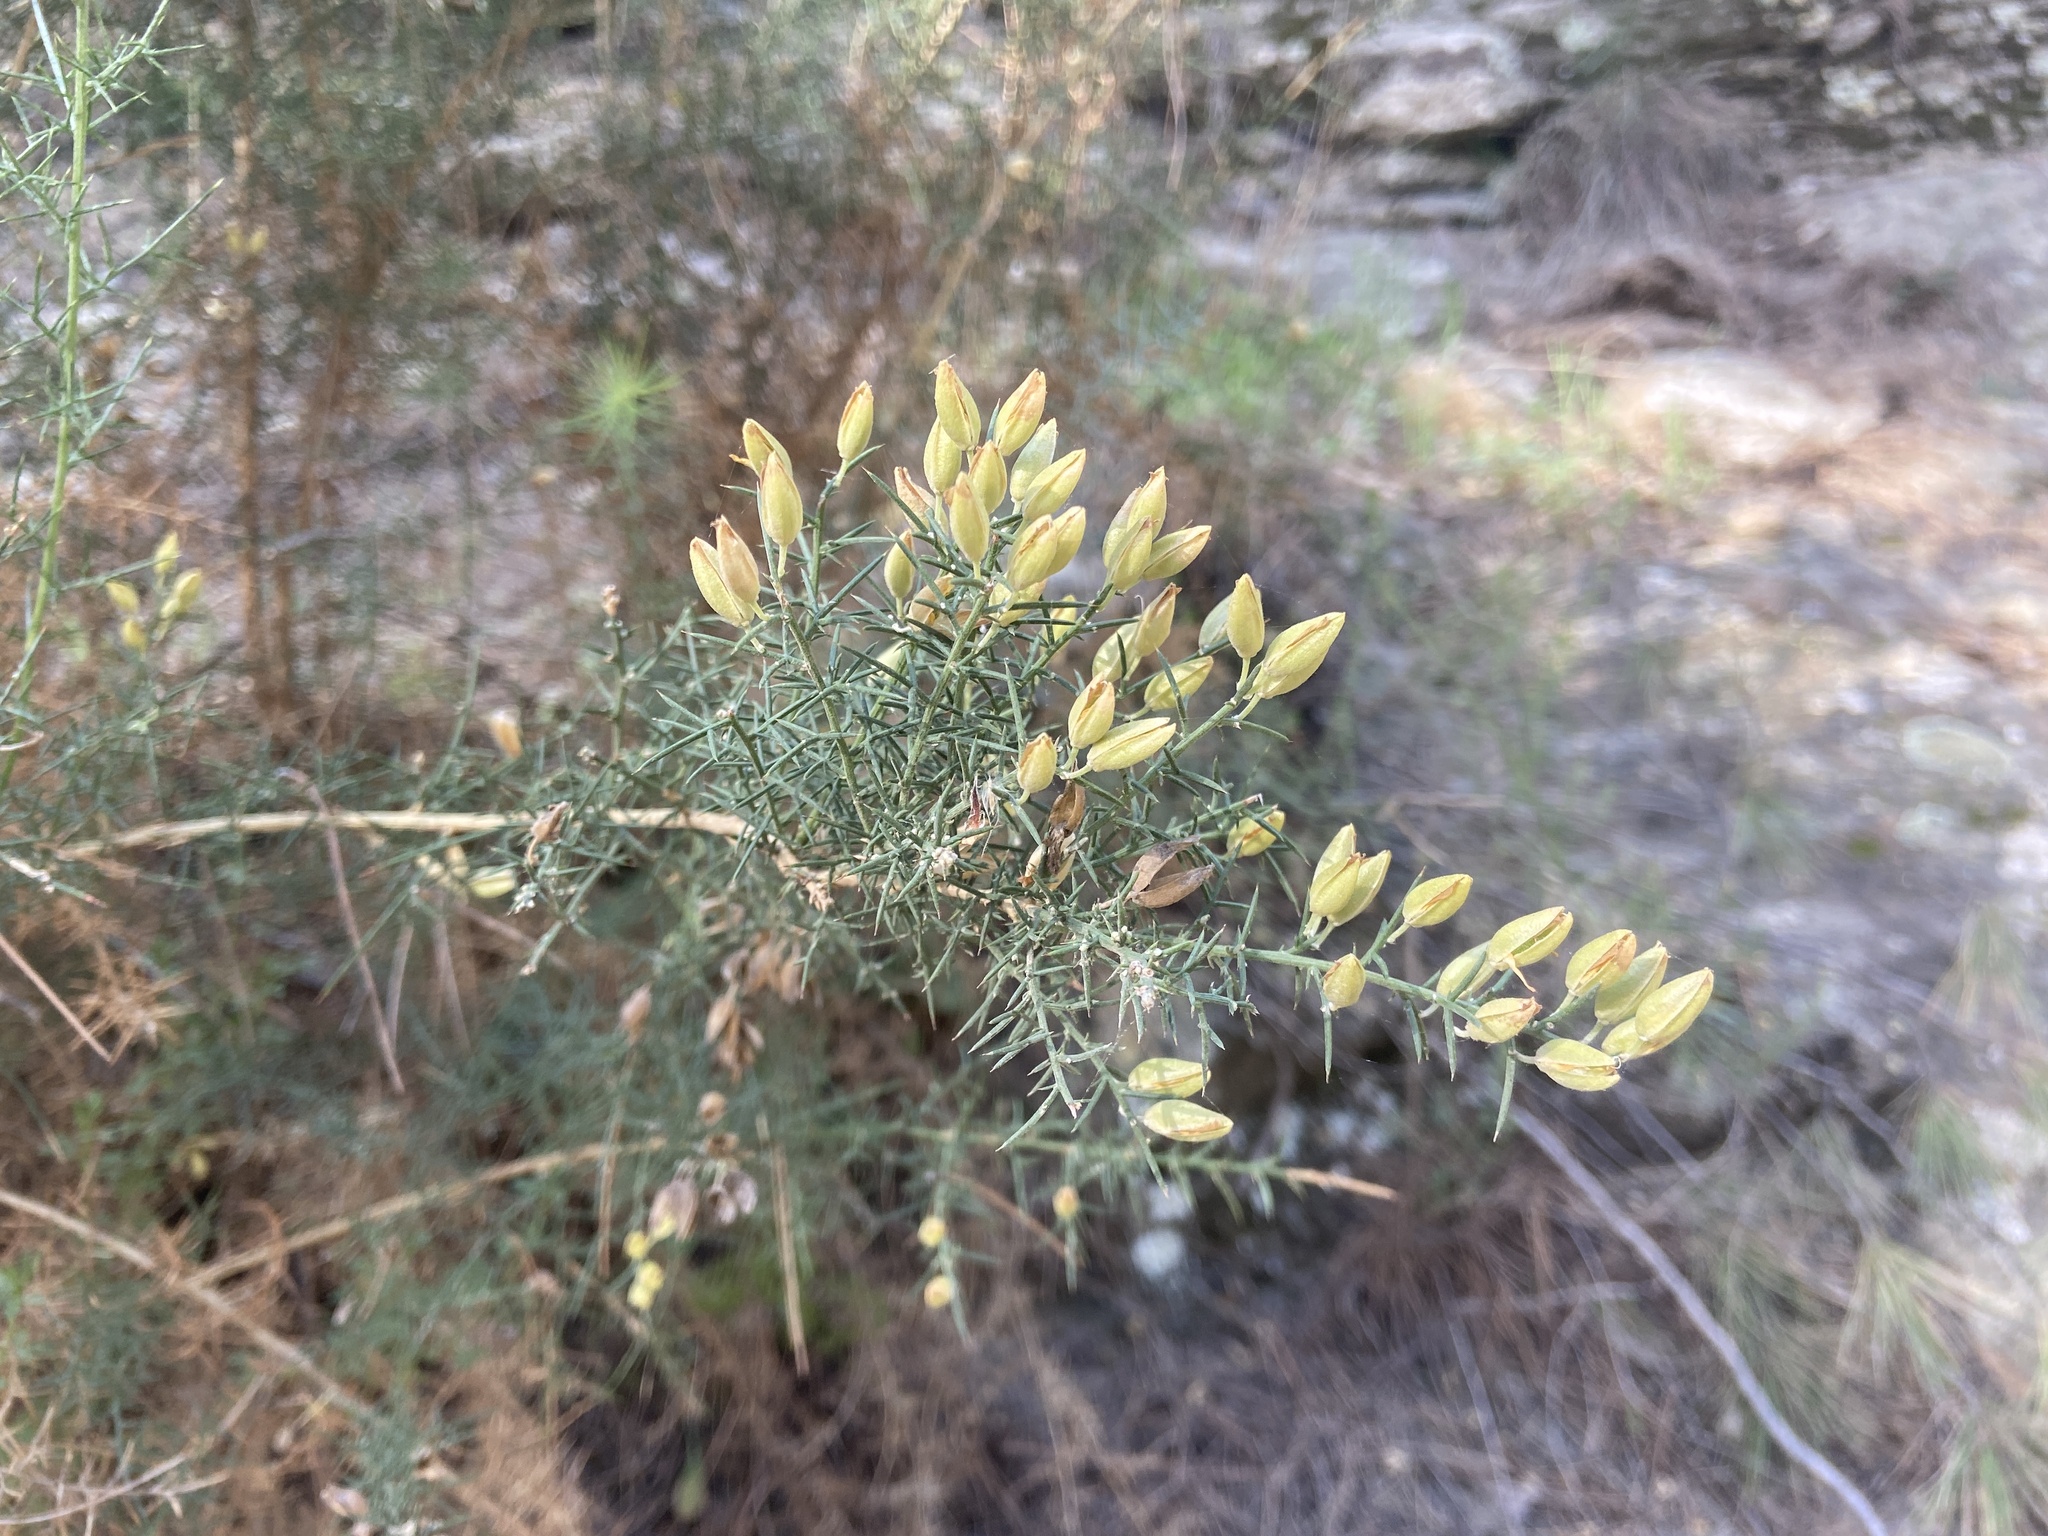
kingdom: Plantae
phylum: Tracheophyta
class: Magnoliopsida
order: Fabales
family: Fabaceae
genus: Ulex
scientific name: Ulex parviflorus
